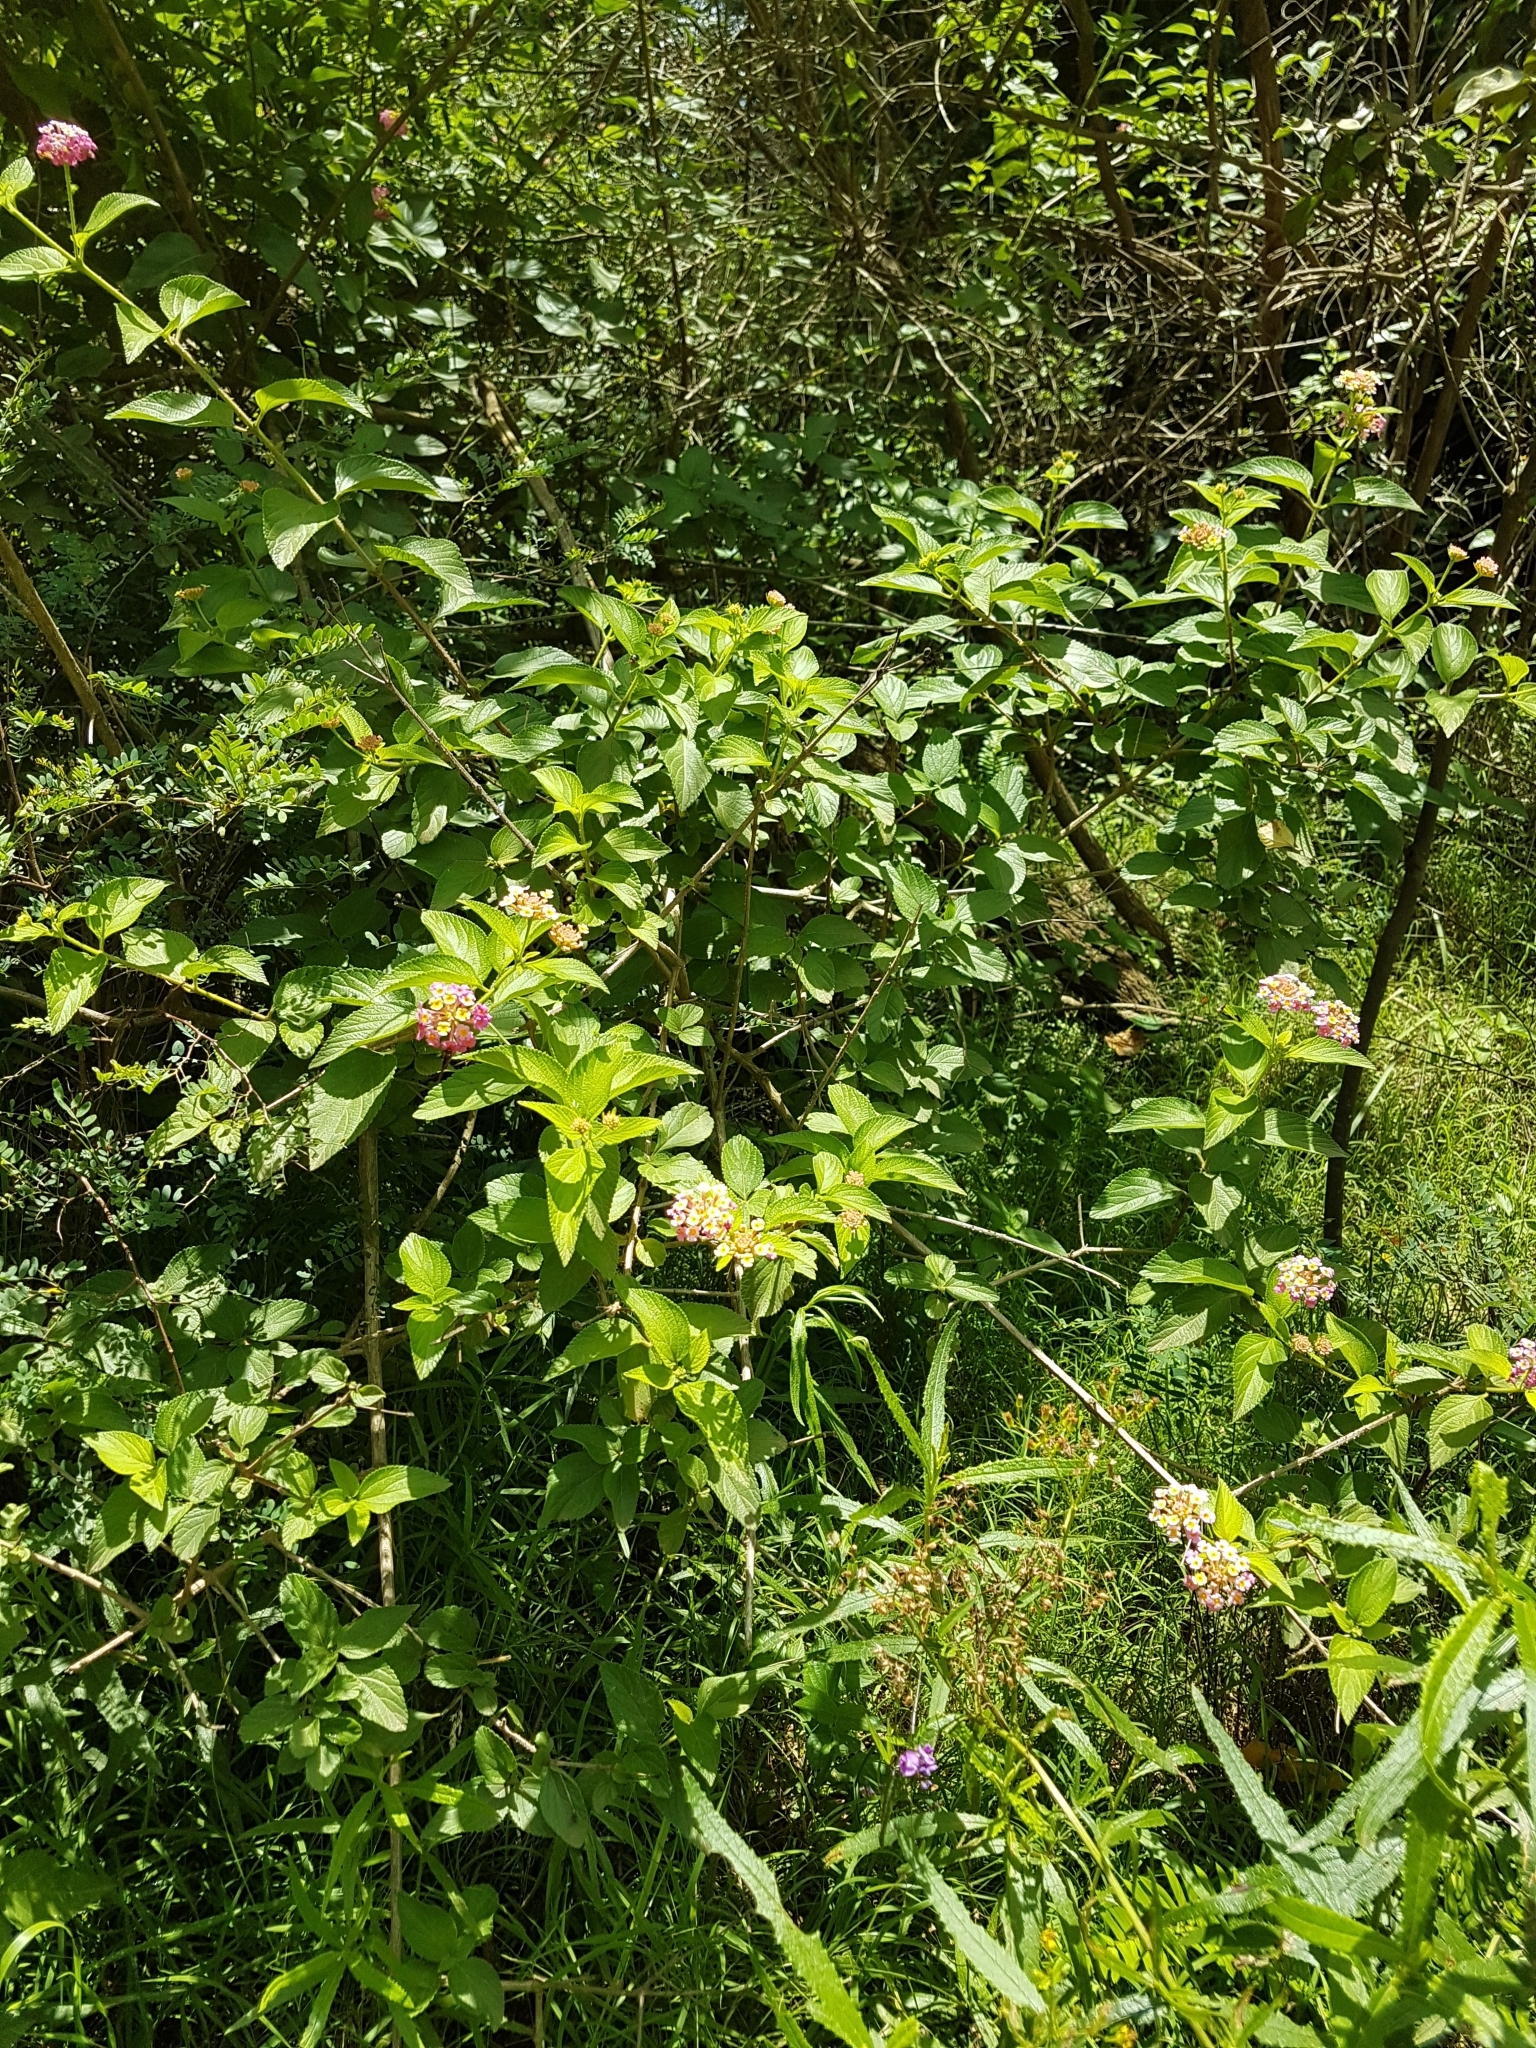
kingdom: Plantae
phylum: Tracheophyta
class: Magnoliopsida
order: Lamiales
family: Verbenaceae
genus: Lantana
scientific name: Lantana camara
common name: Lantana
